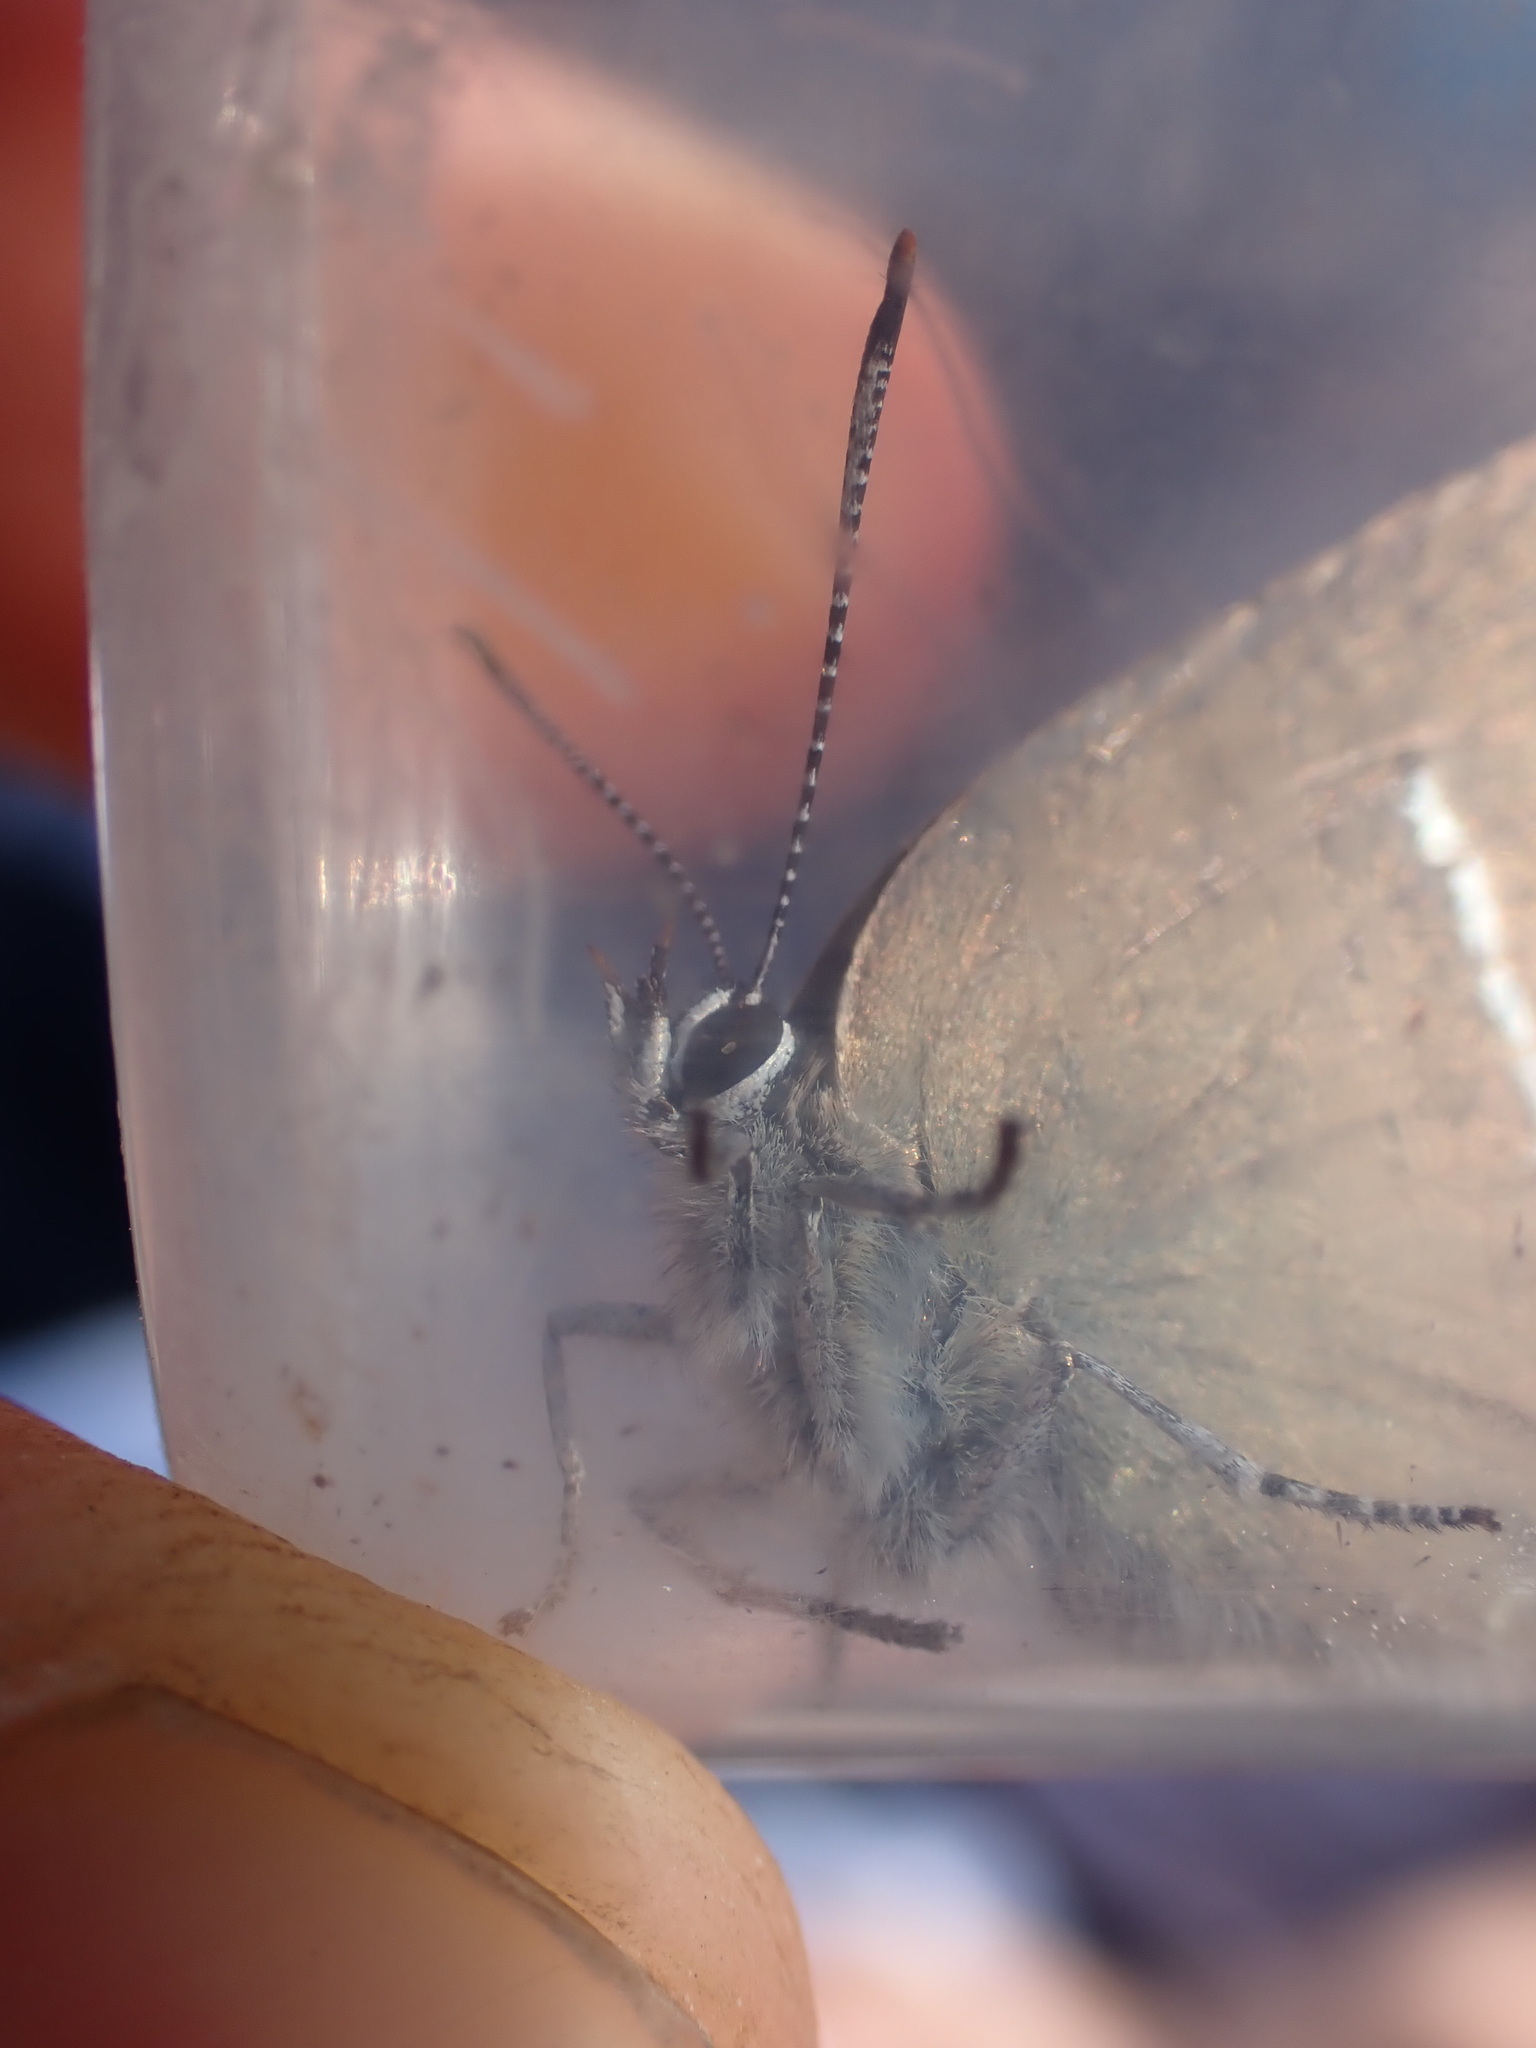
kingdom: Animalia
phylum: Arthropoda
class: Insecta
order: Lepidoptera
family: Lycaenidae
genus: Tuttiola
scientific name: Tuttiola spini
